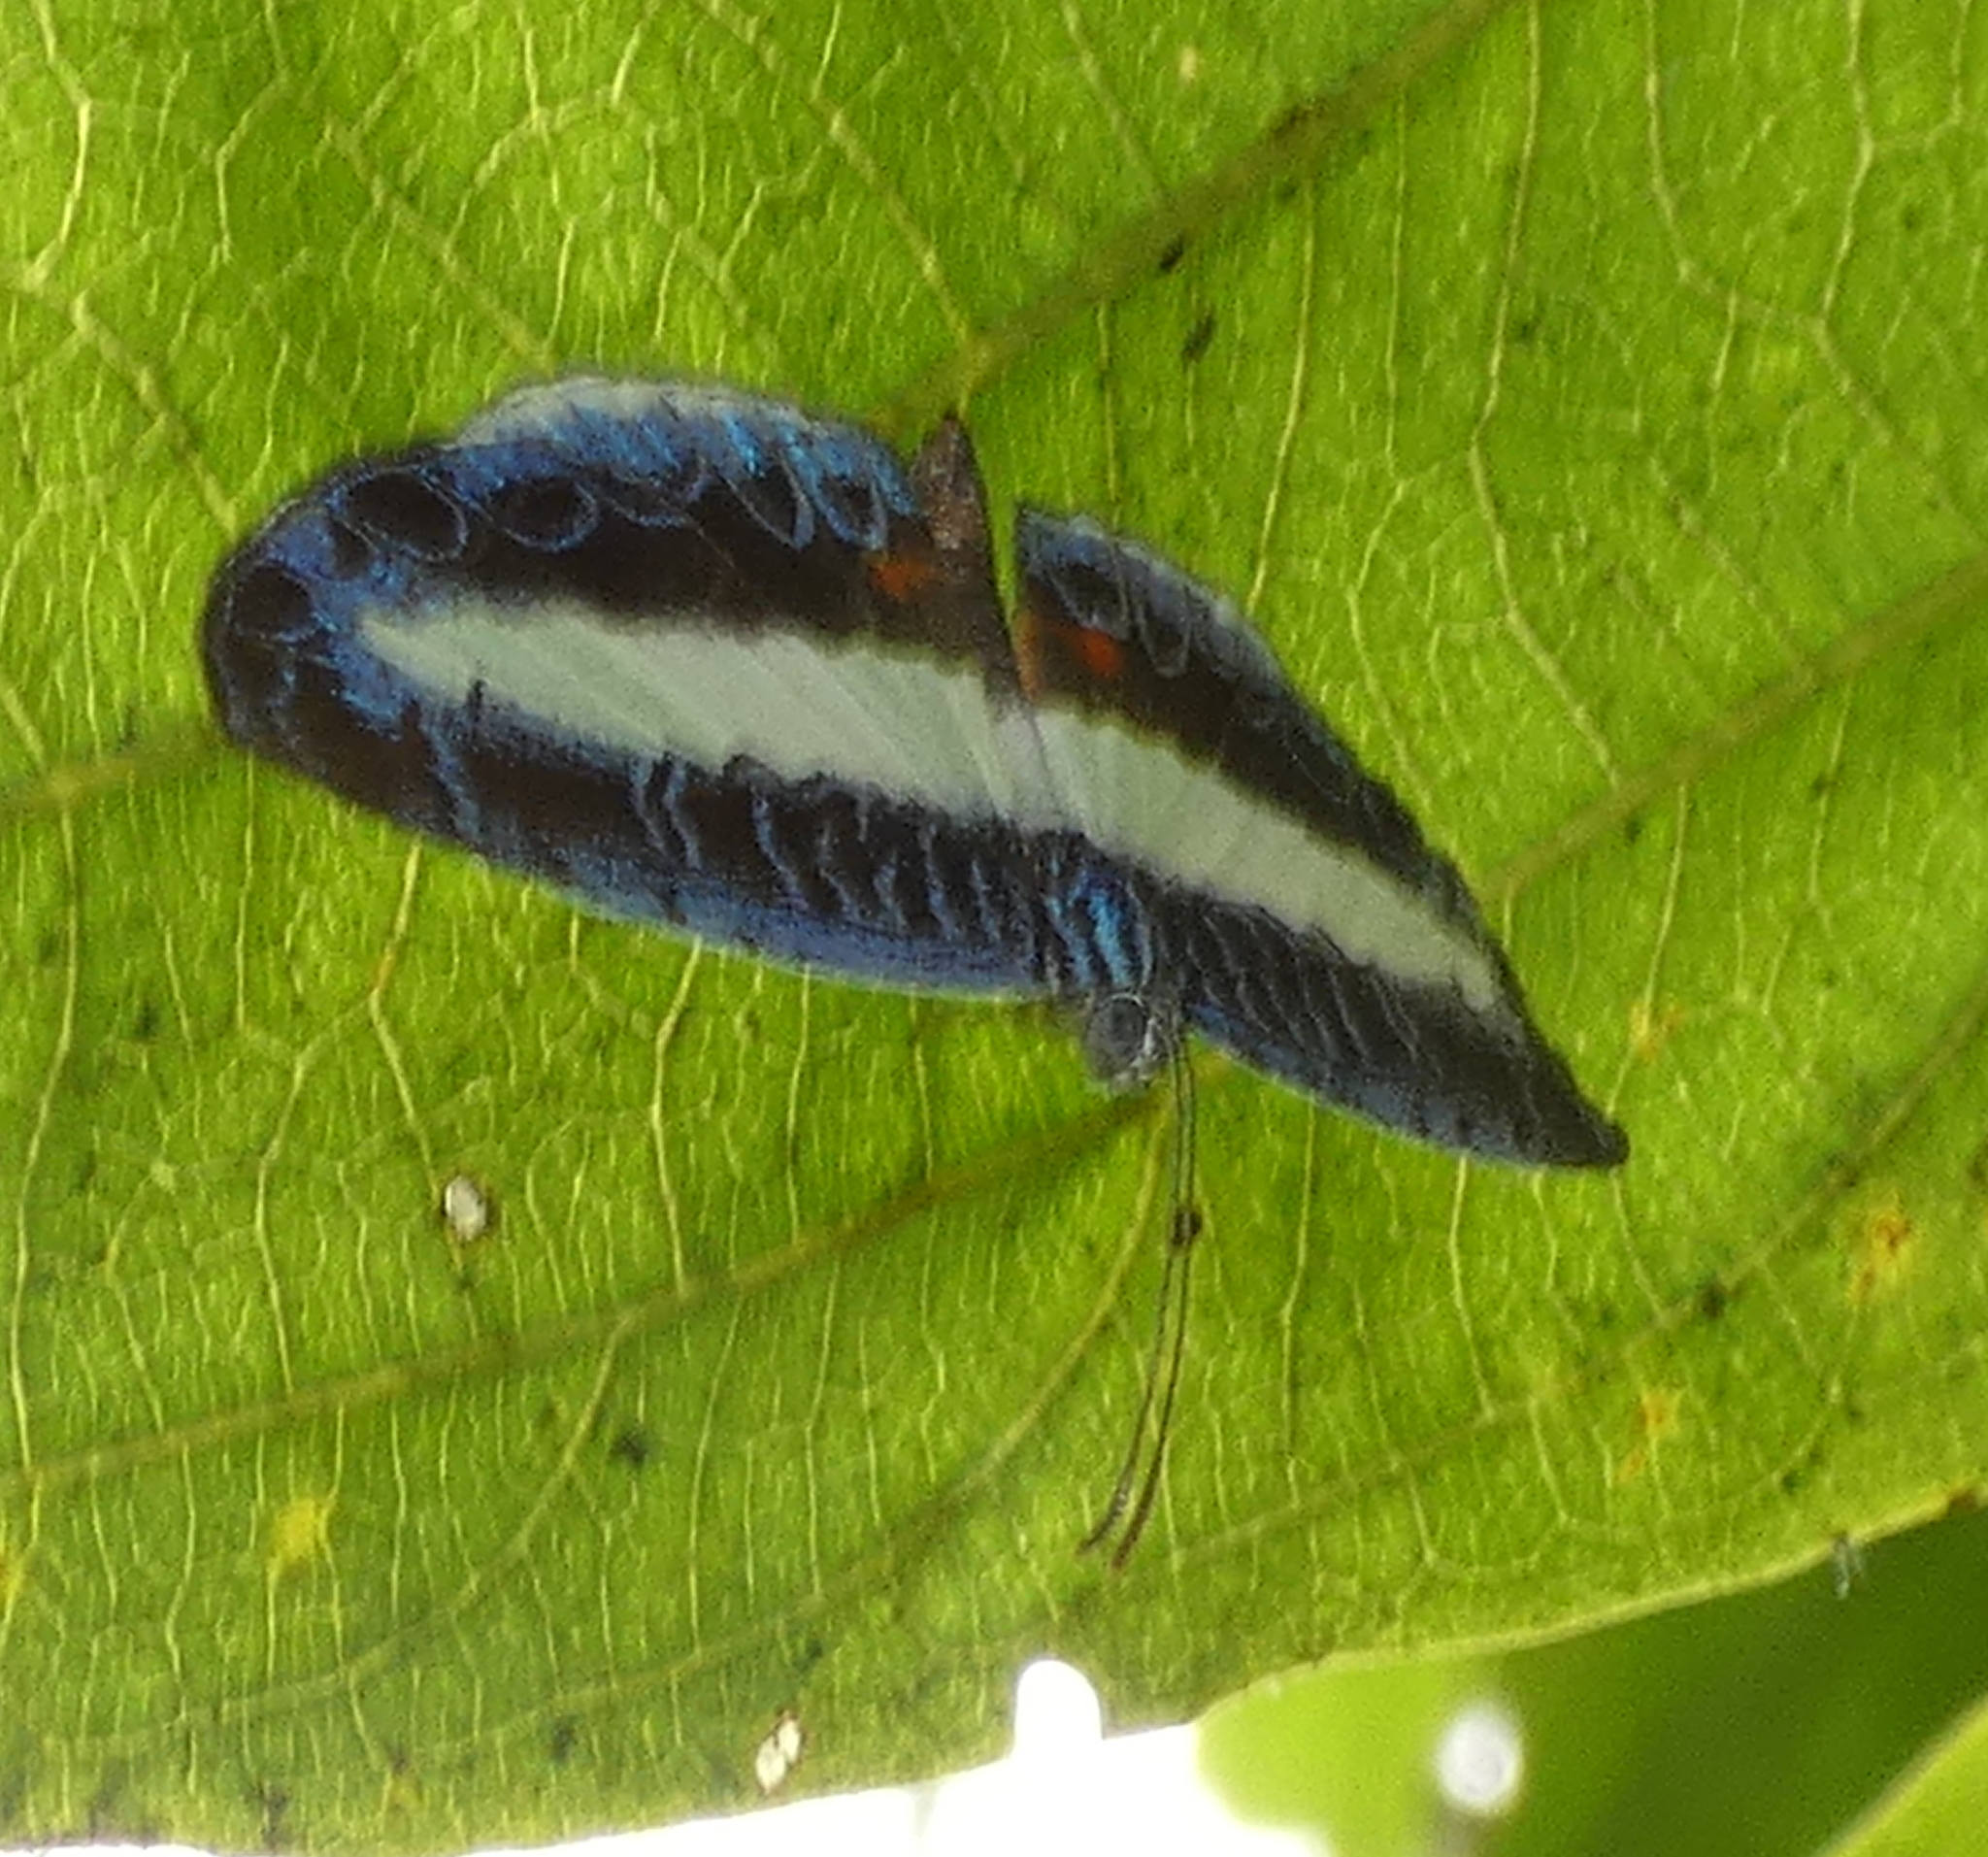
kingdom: Animalia
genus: Nymphidium
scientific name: Nymphidium mantus
